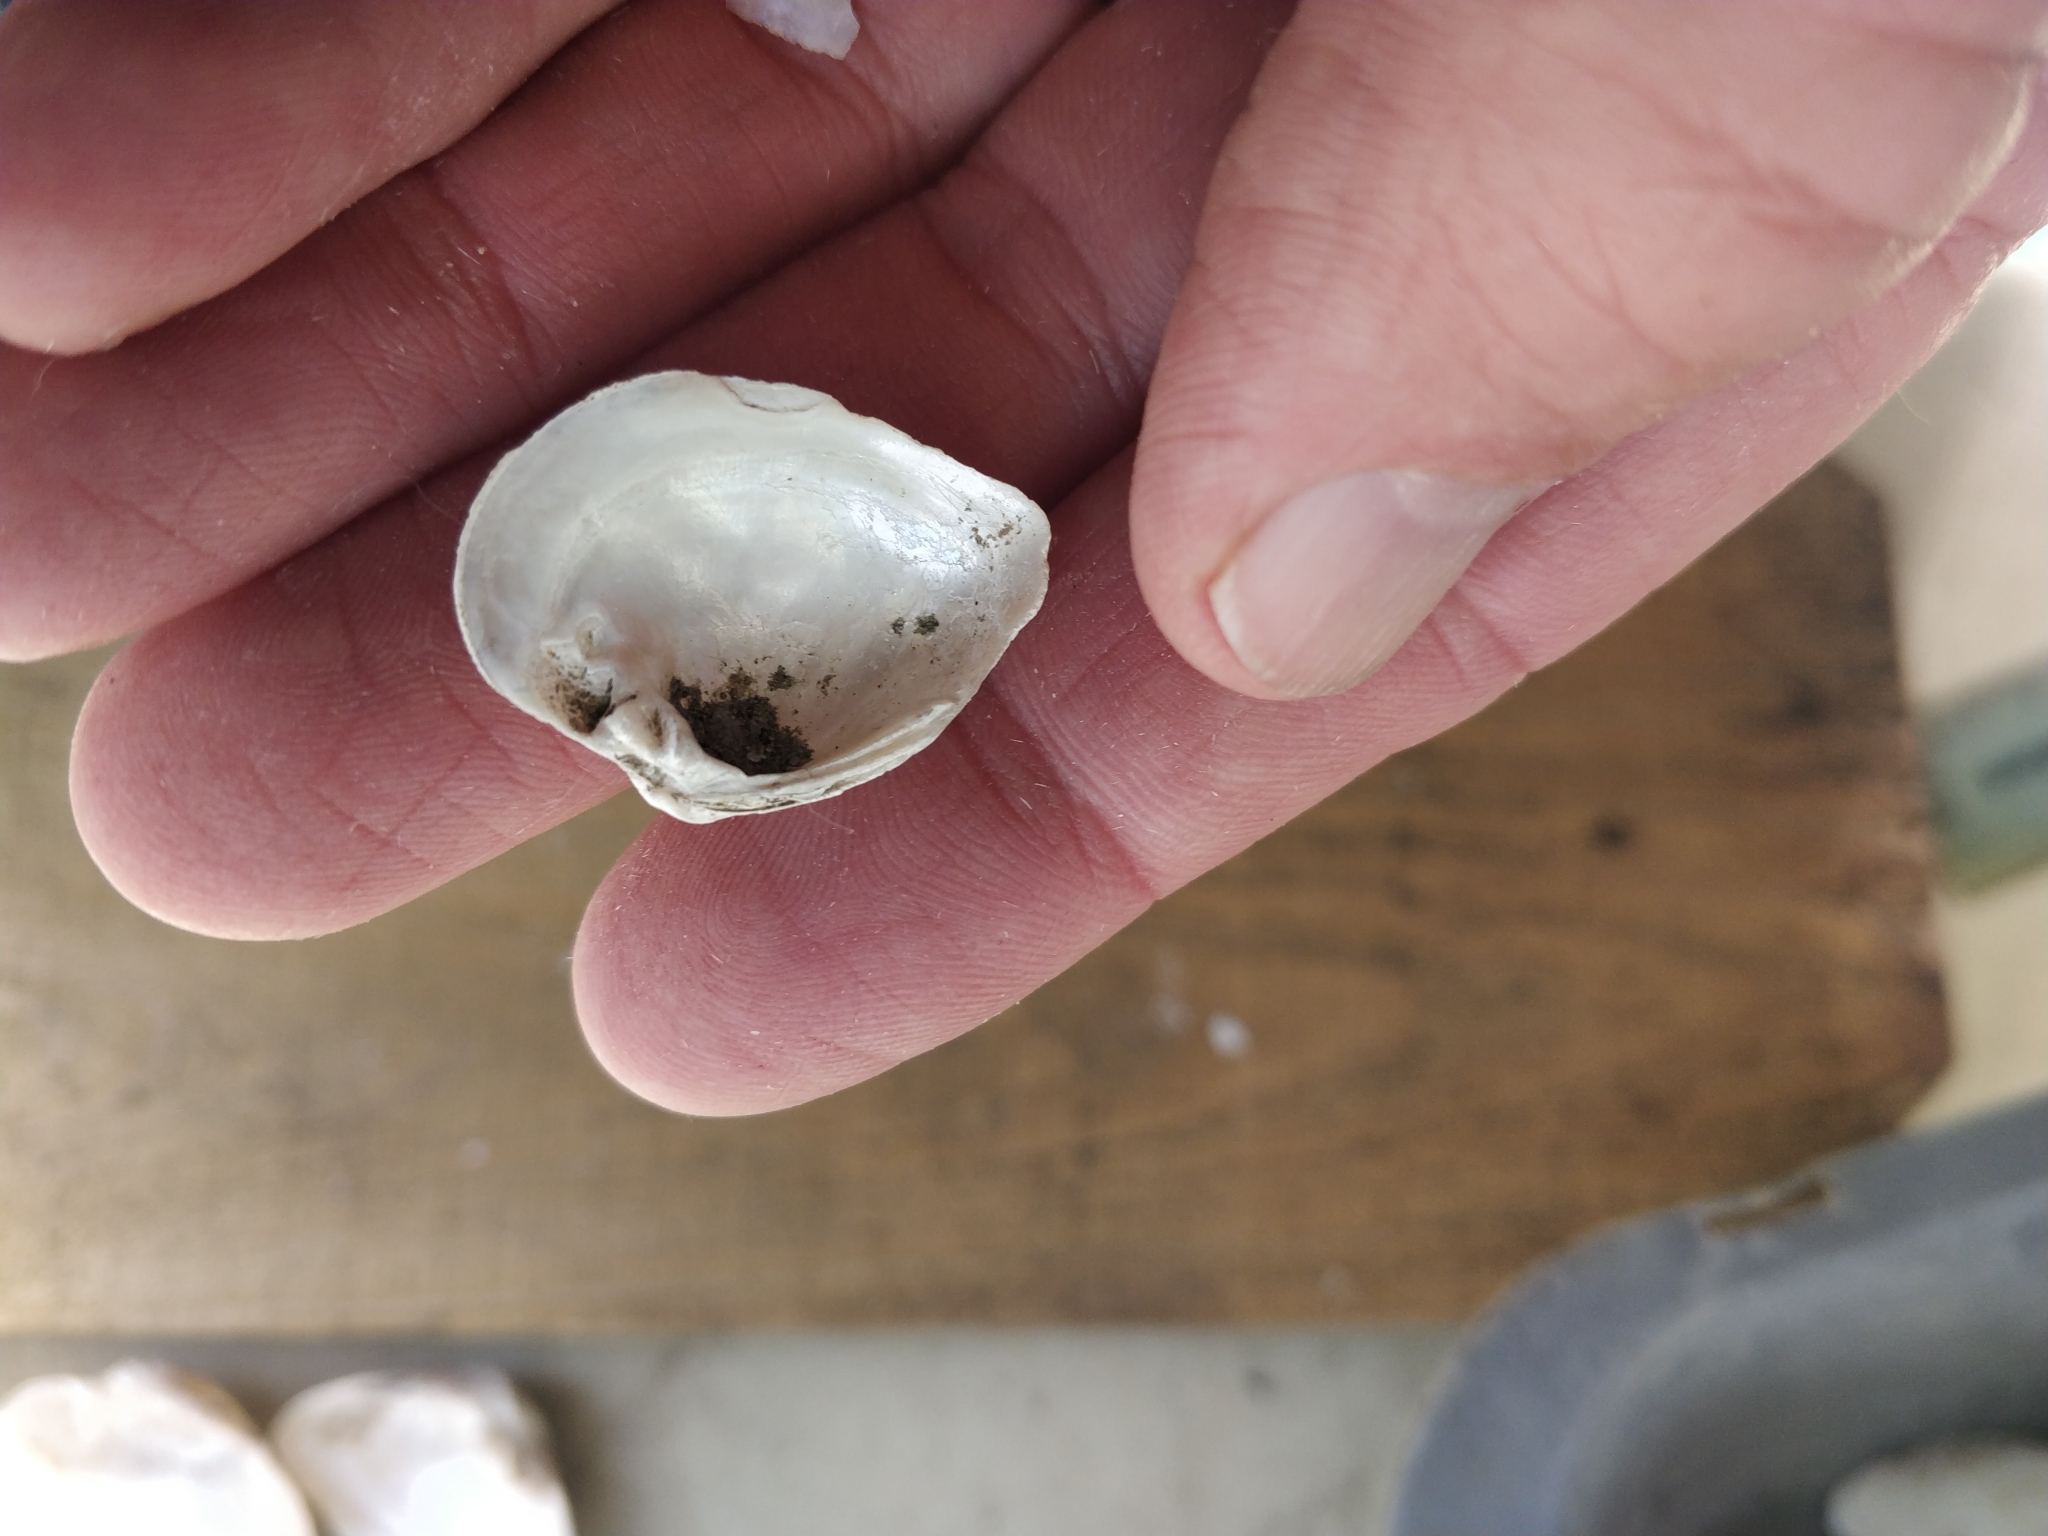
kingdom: Animalia
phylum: Mollusca
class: Bivalvia
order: Unionida
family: Unionidae
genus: Truncilla
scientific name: Truncilla truncata
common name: Deertoe
